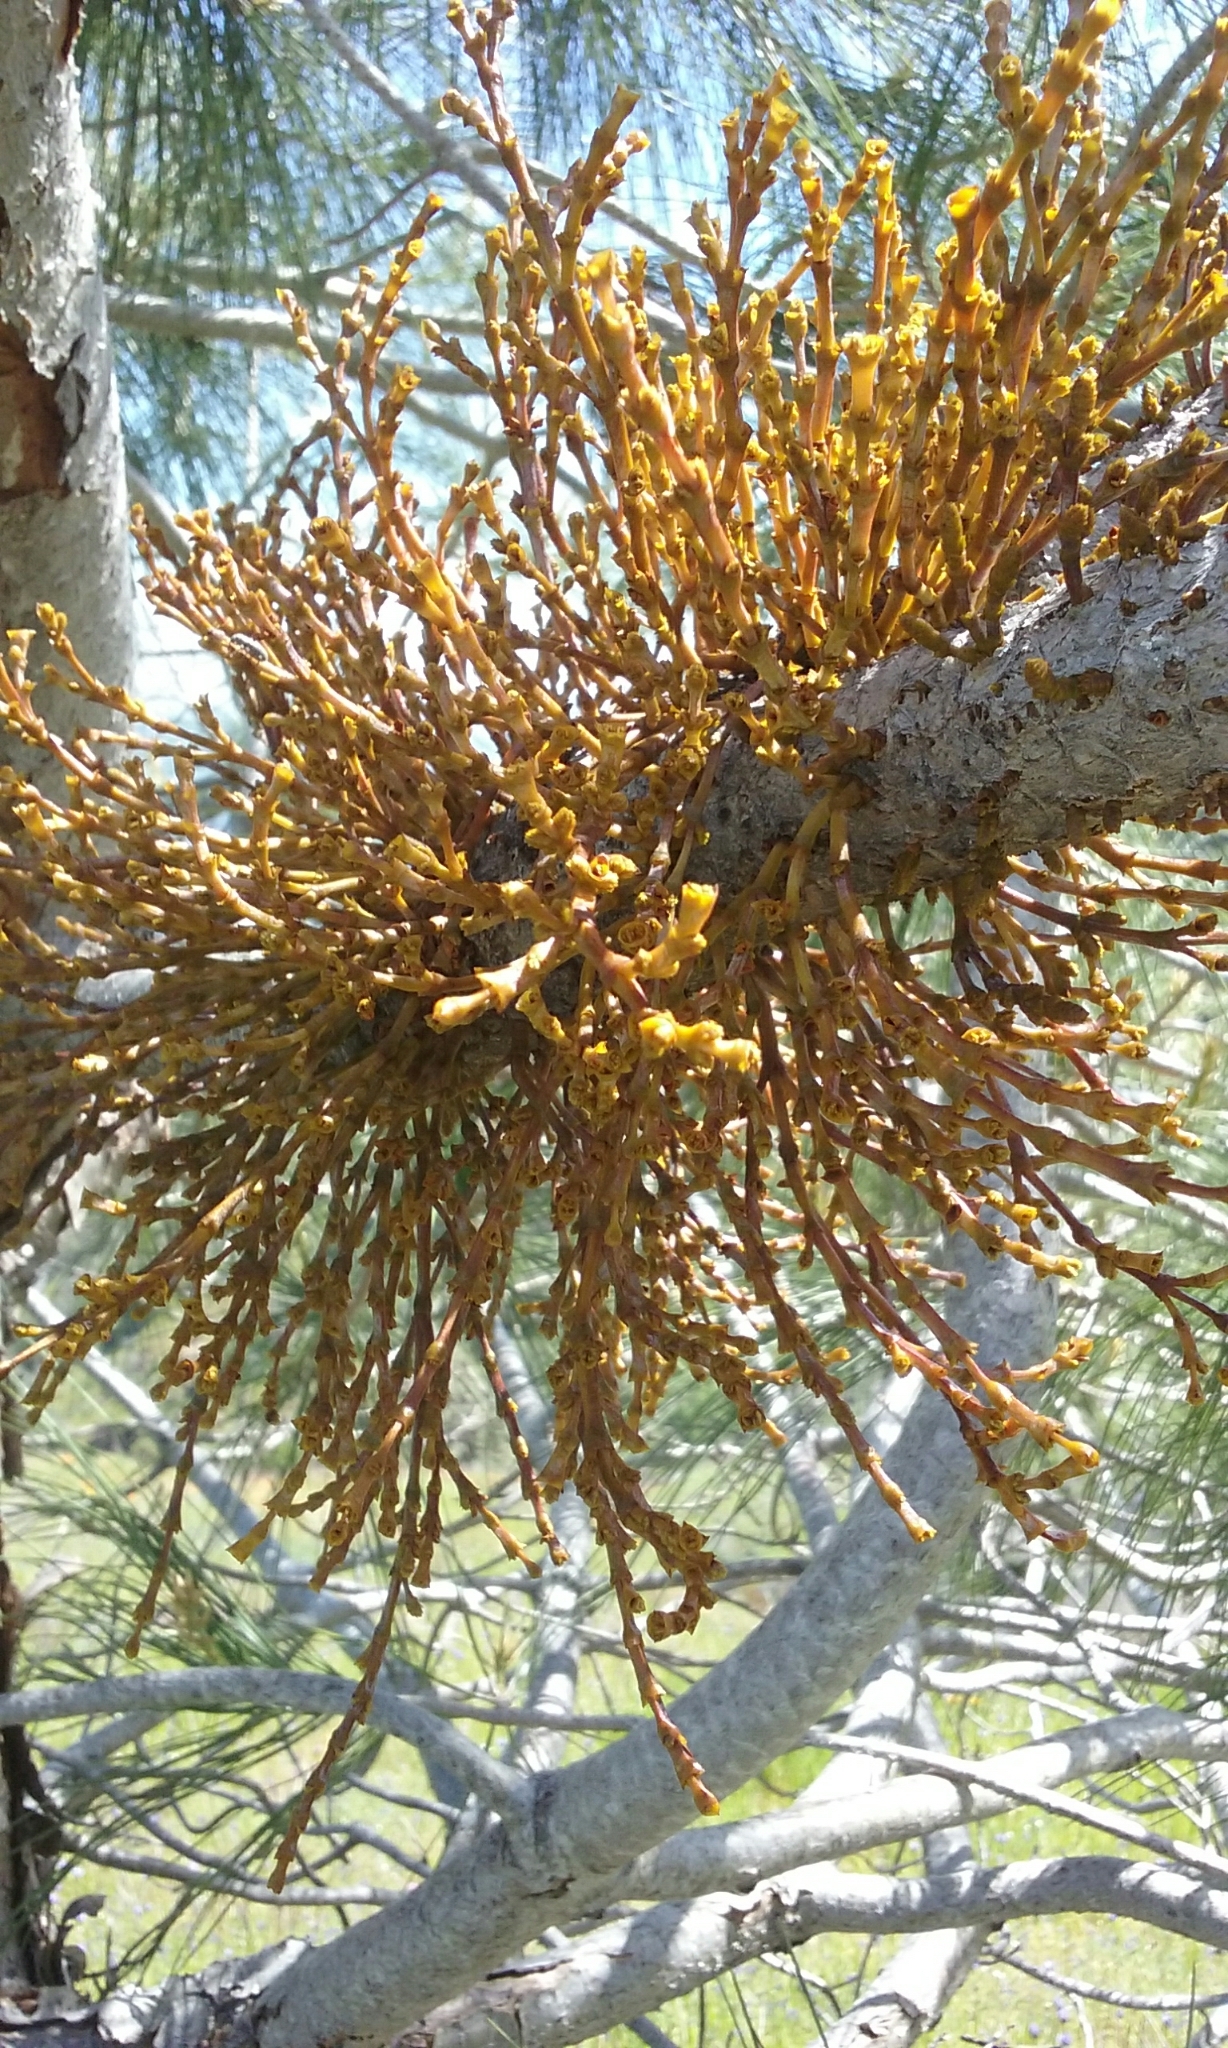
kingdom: Plantae
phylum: Tracheophyta
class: Magnoliopsida
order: Santalales
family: Viscaceae
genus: Arceuthobium
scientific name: Arceuthobium campylopodum
